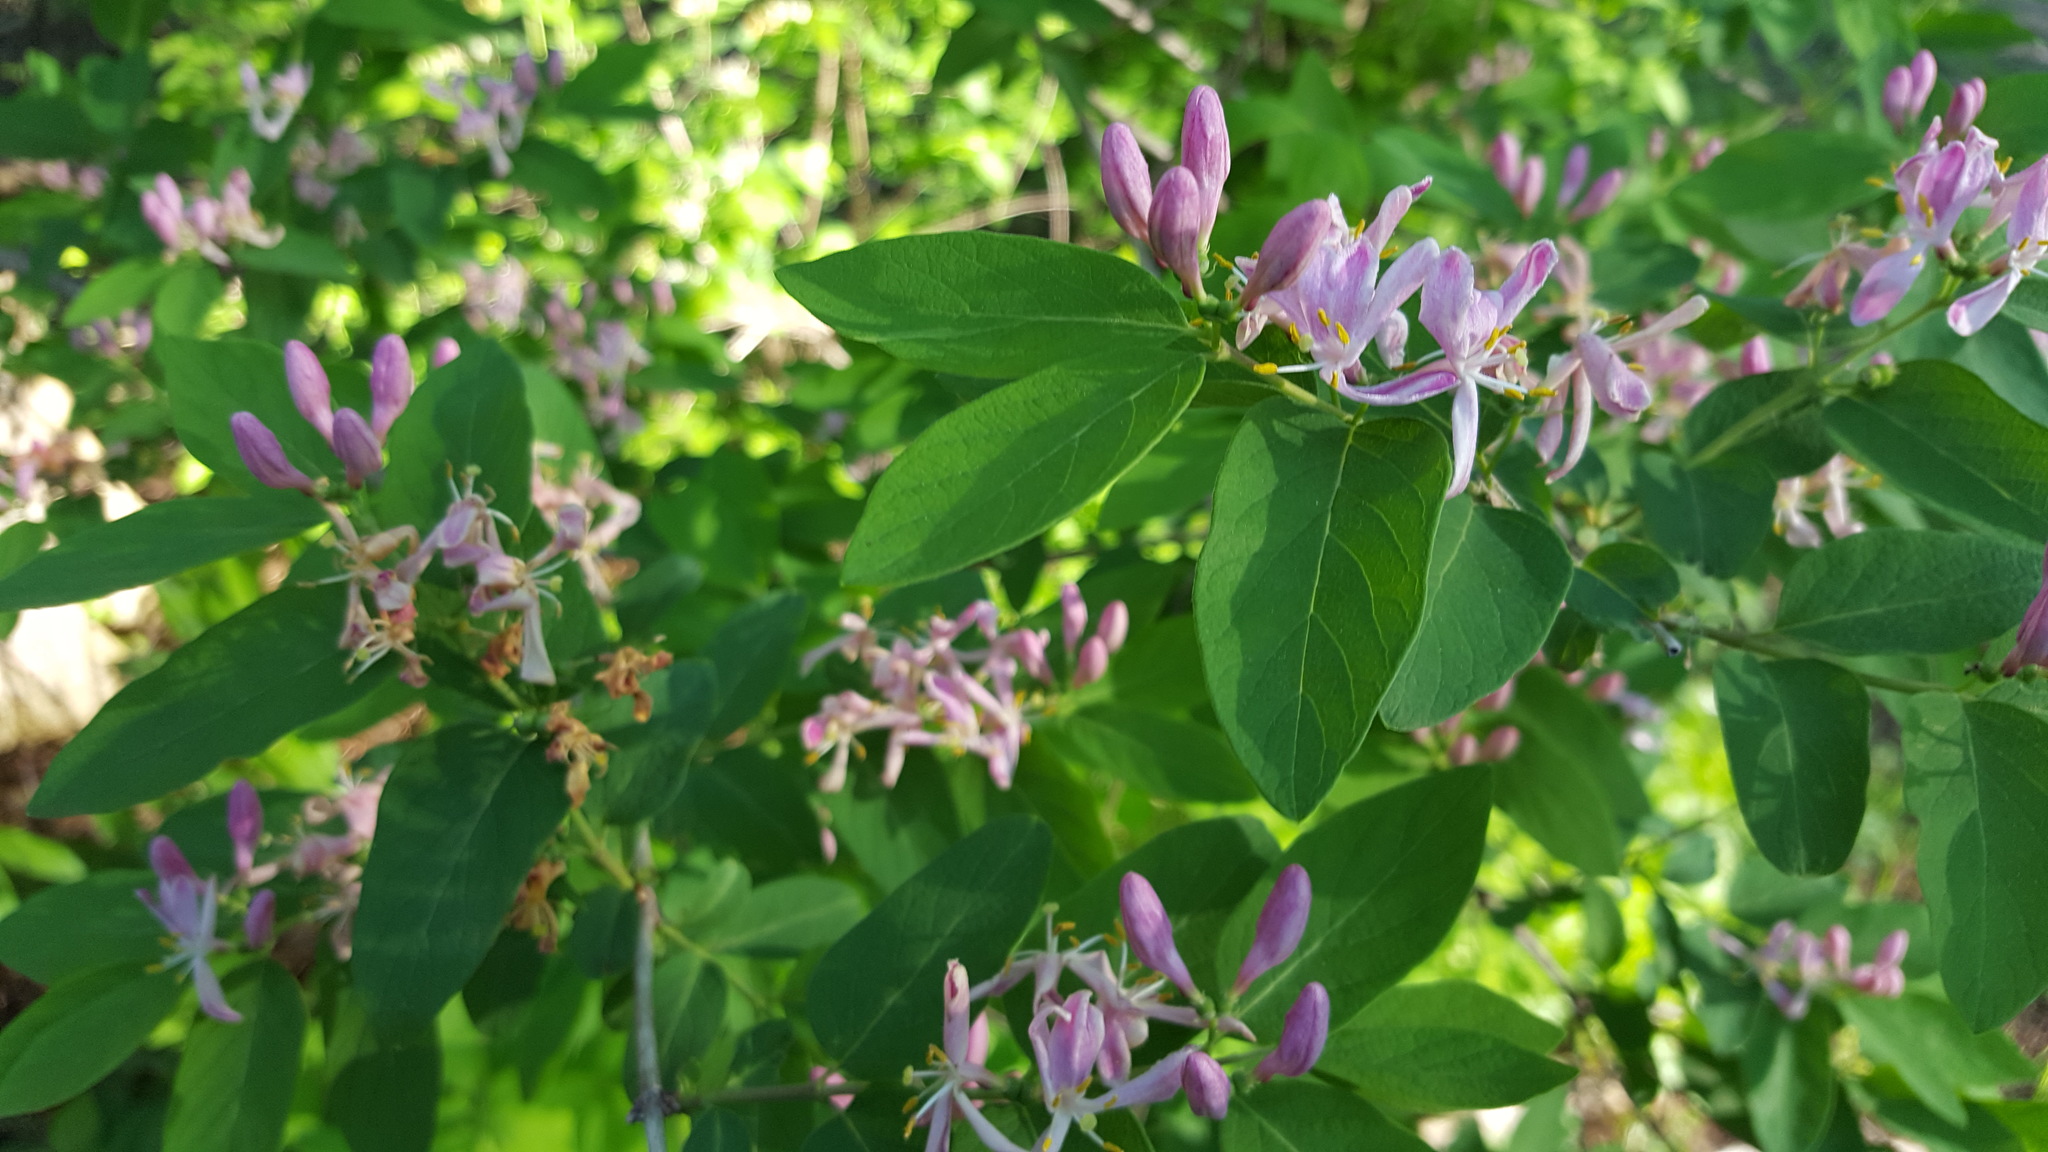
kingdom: Plantae
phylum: Tracheophyta
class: Magnoliopsida
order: Dipsacales
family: Caprifoliaceae
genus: Lonicera
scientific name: Lonicera bella
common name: Bell's honeysuckle
